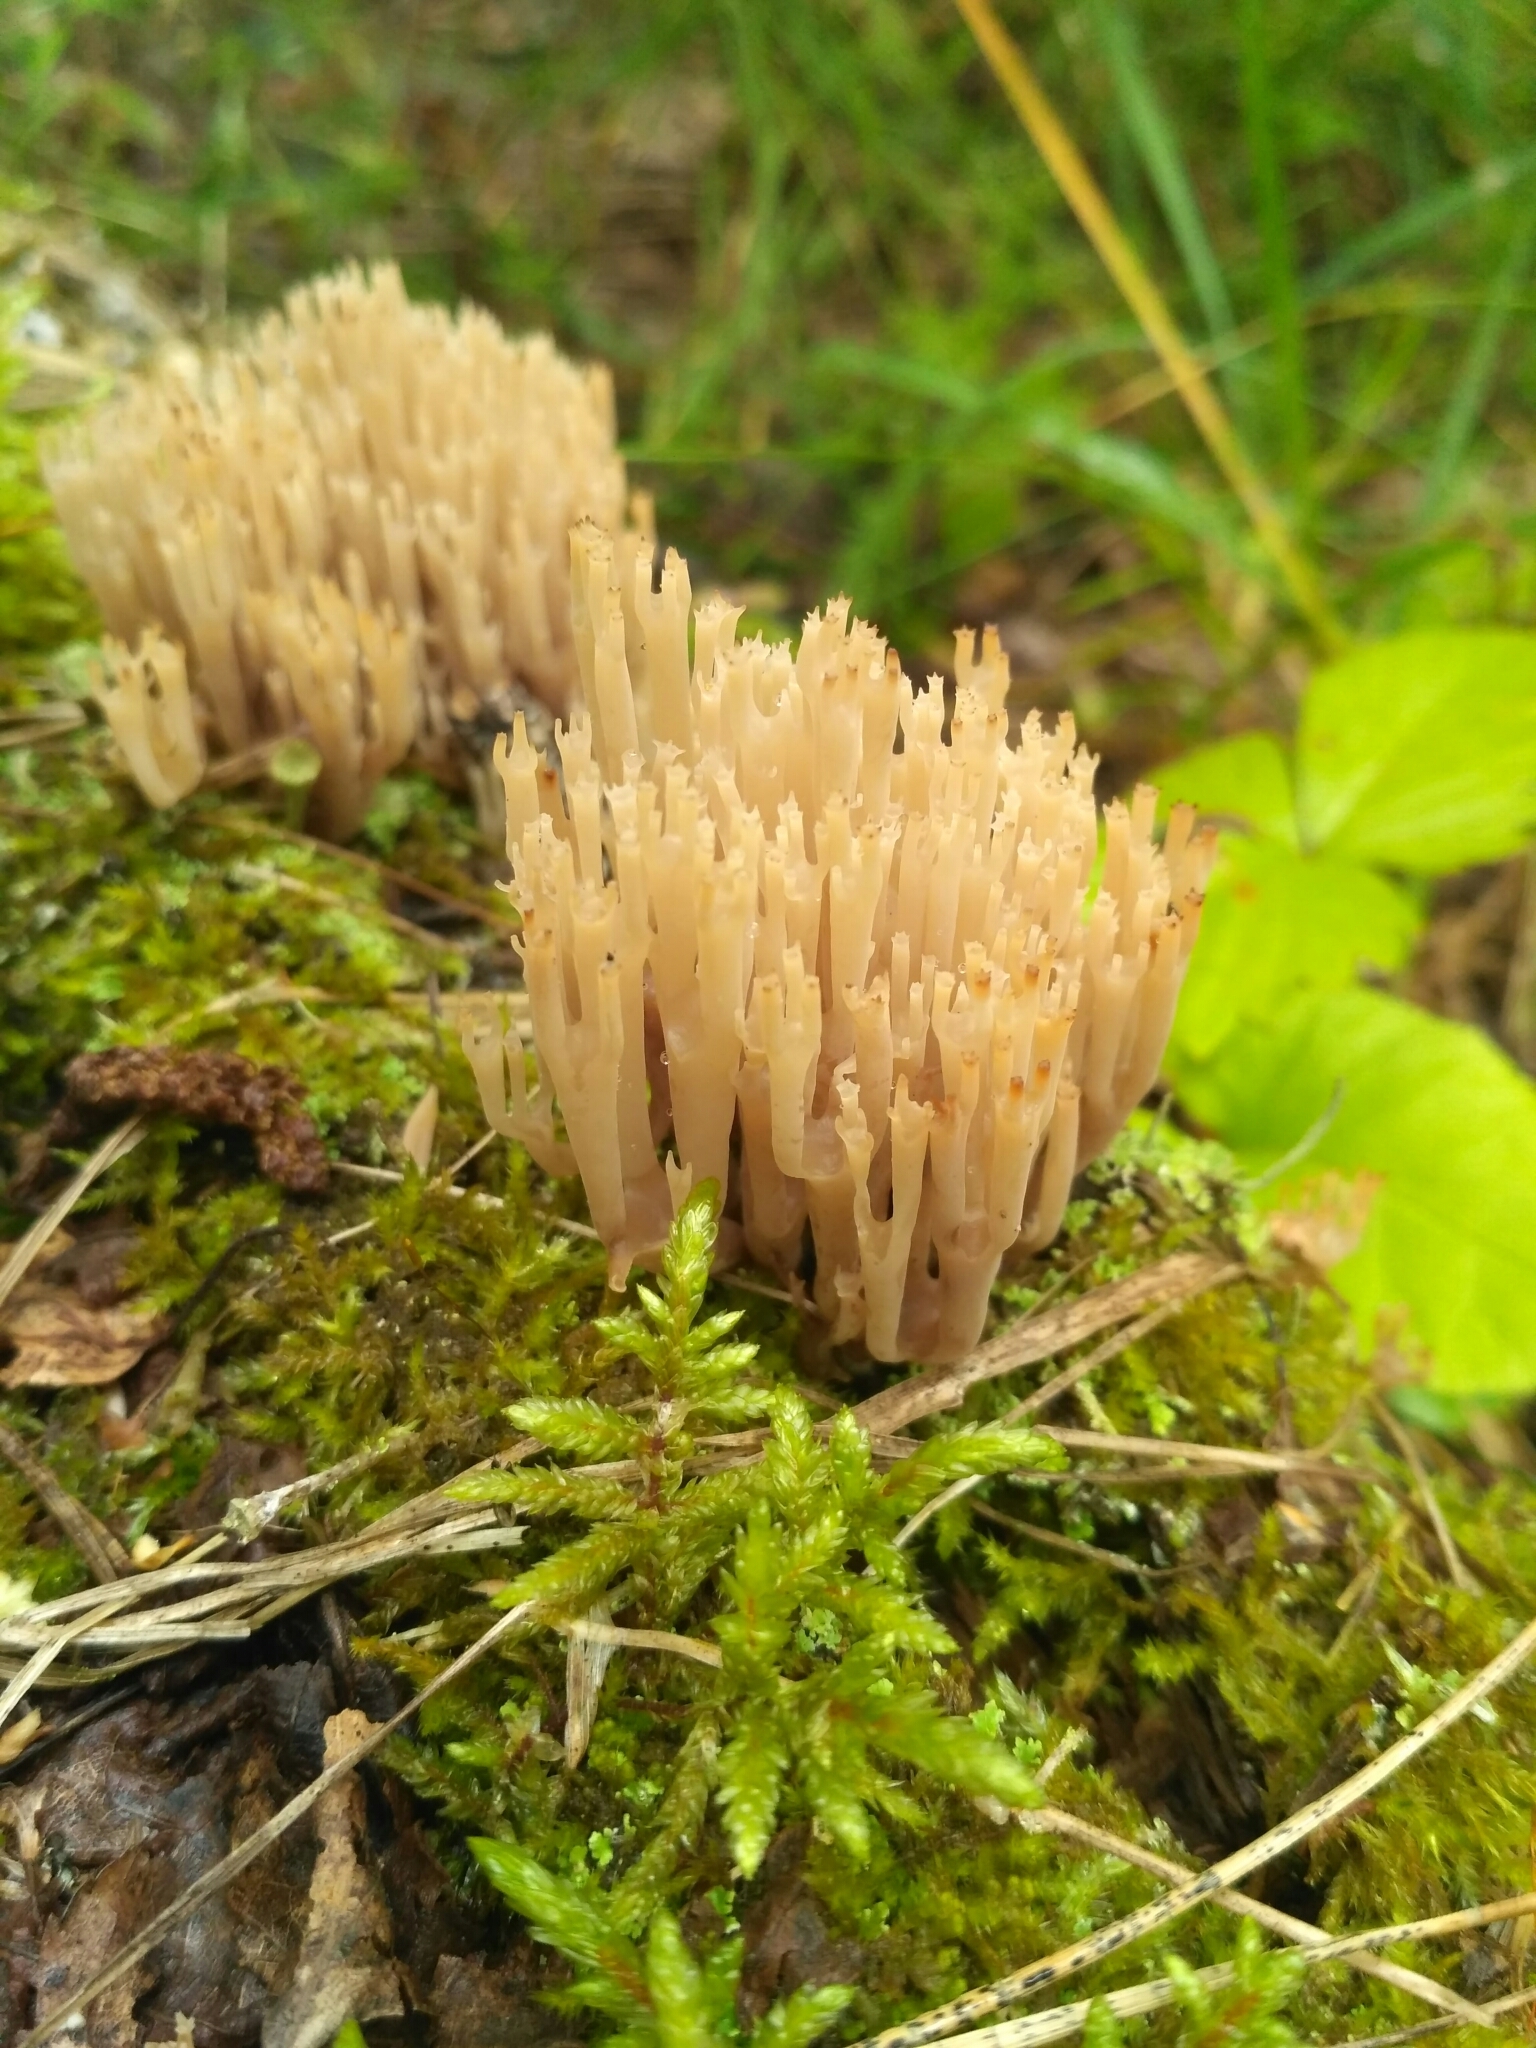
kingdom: Fungi
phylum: Basidiomycota
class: Agaricomycetes
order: Russulales
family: Auriscalpiaceae
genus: Artomyces
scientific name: Artomyces pyxidatus
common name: Crown-tipped coral fungus
